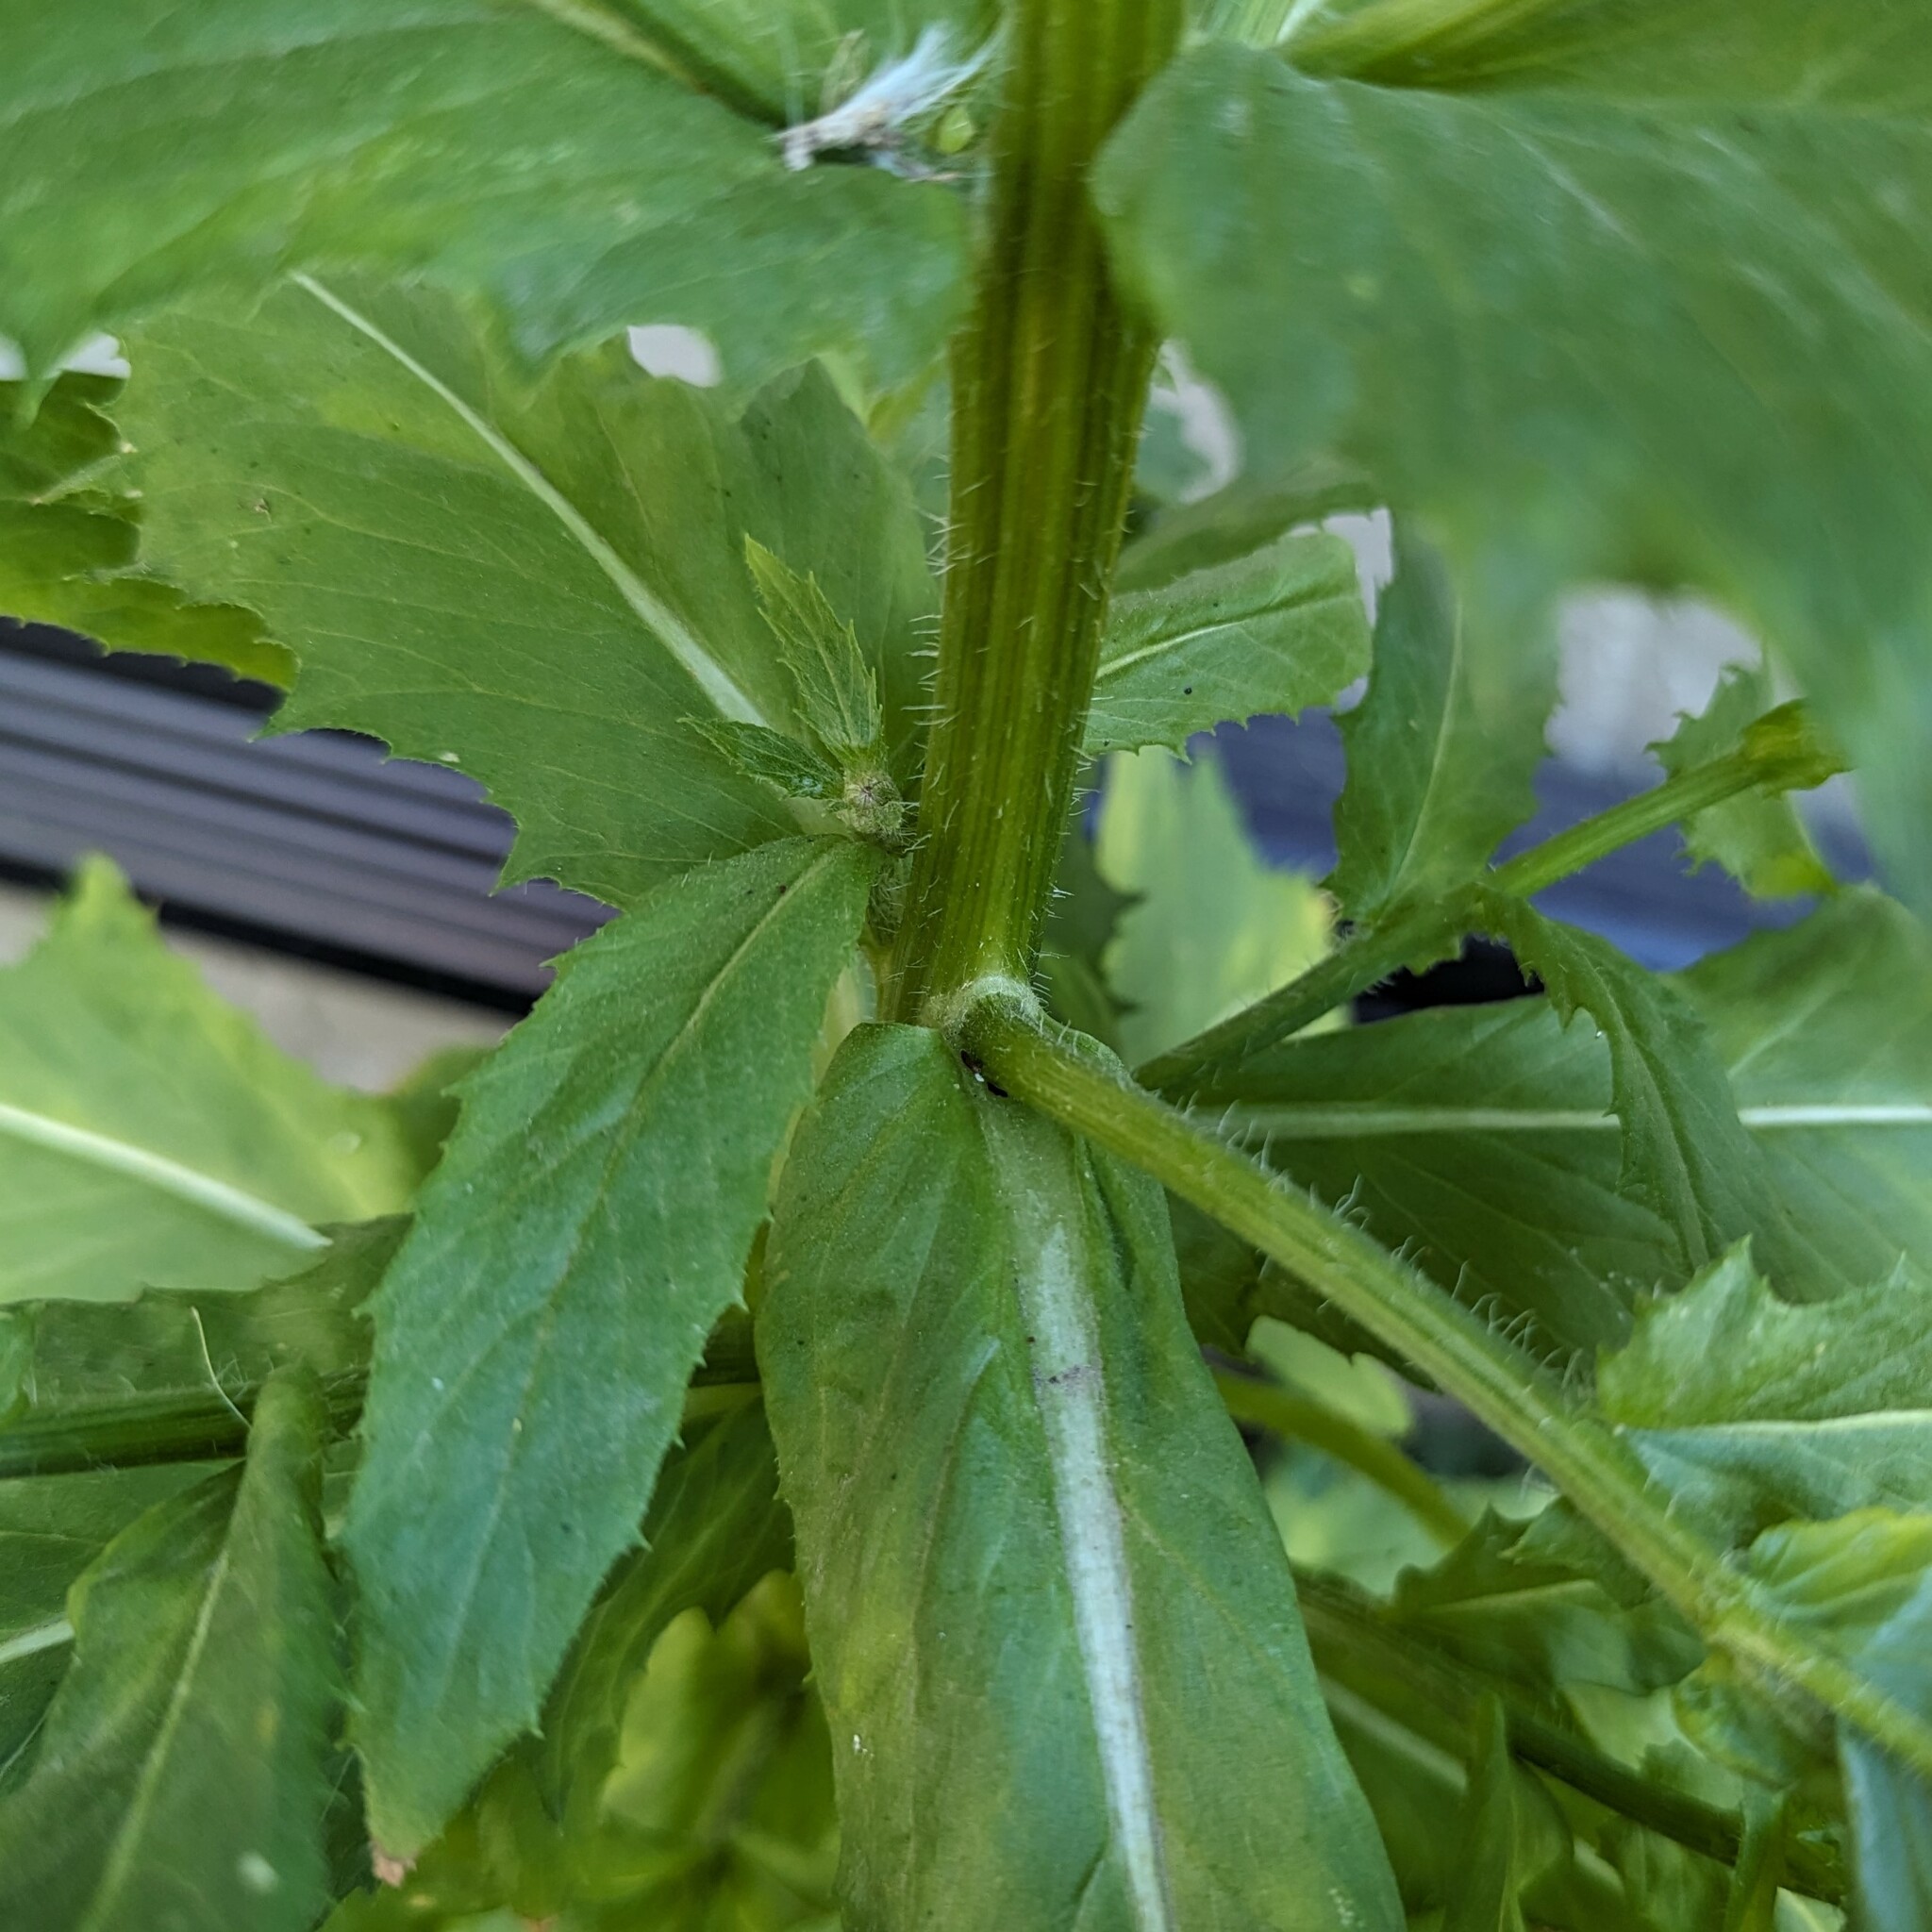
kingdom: Plantae
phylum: Tracheophyta
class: Magnoliopsida
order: Asterales
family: Asteraceae
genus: Erechtites
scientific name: Erechtites hieraciifolius
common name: American burnweed
